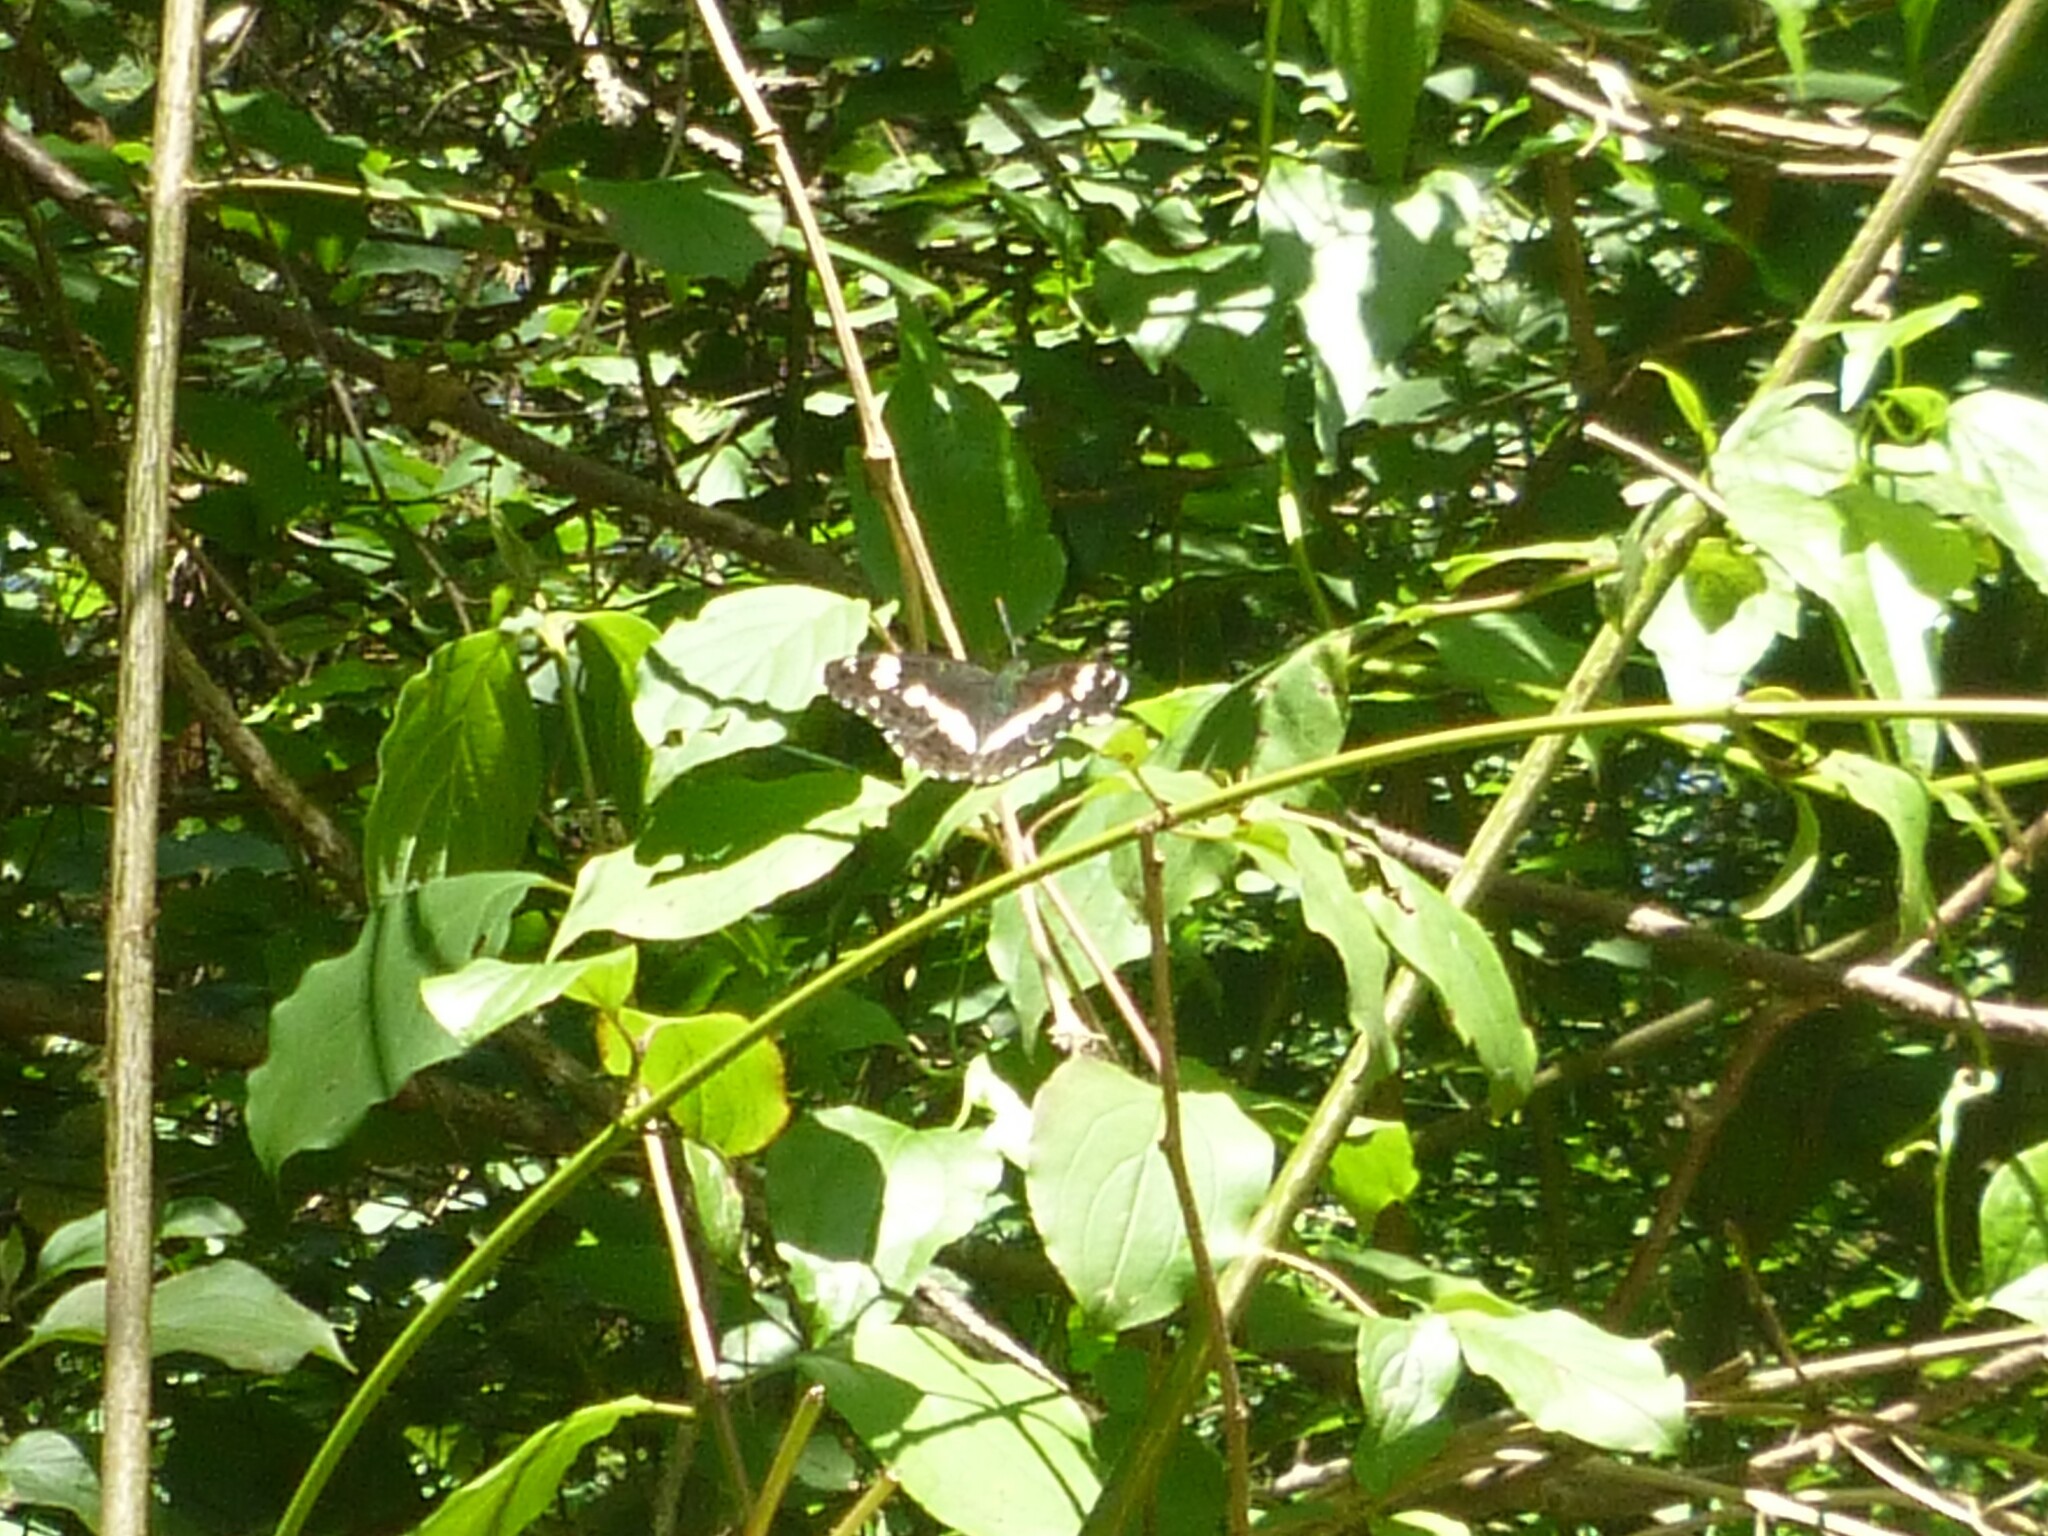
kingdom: Animalia
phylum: Arthropoda
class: Insecta
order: Lepidoptera
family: Nymphalidae
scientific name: Nymphalidae
